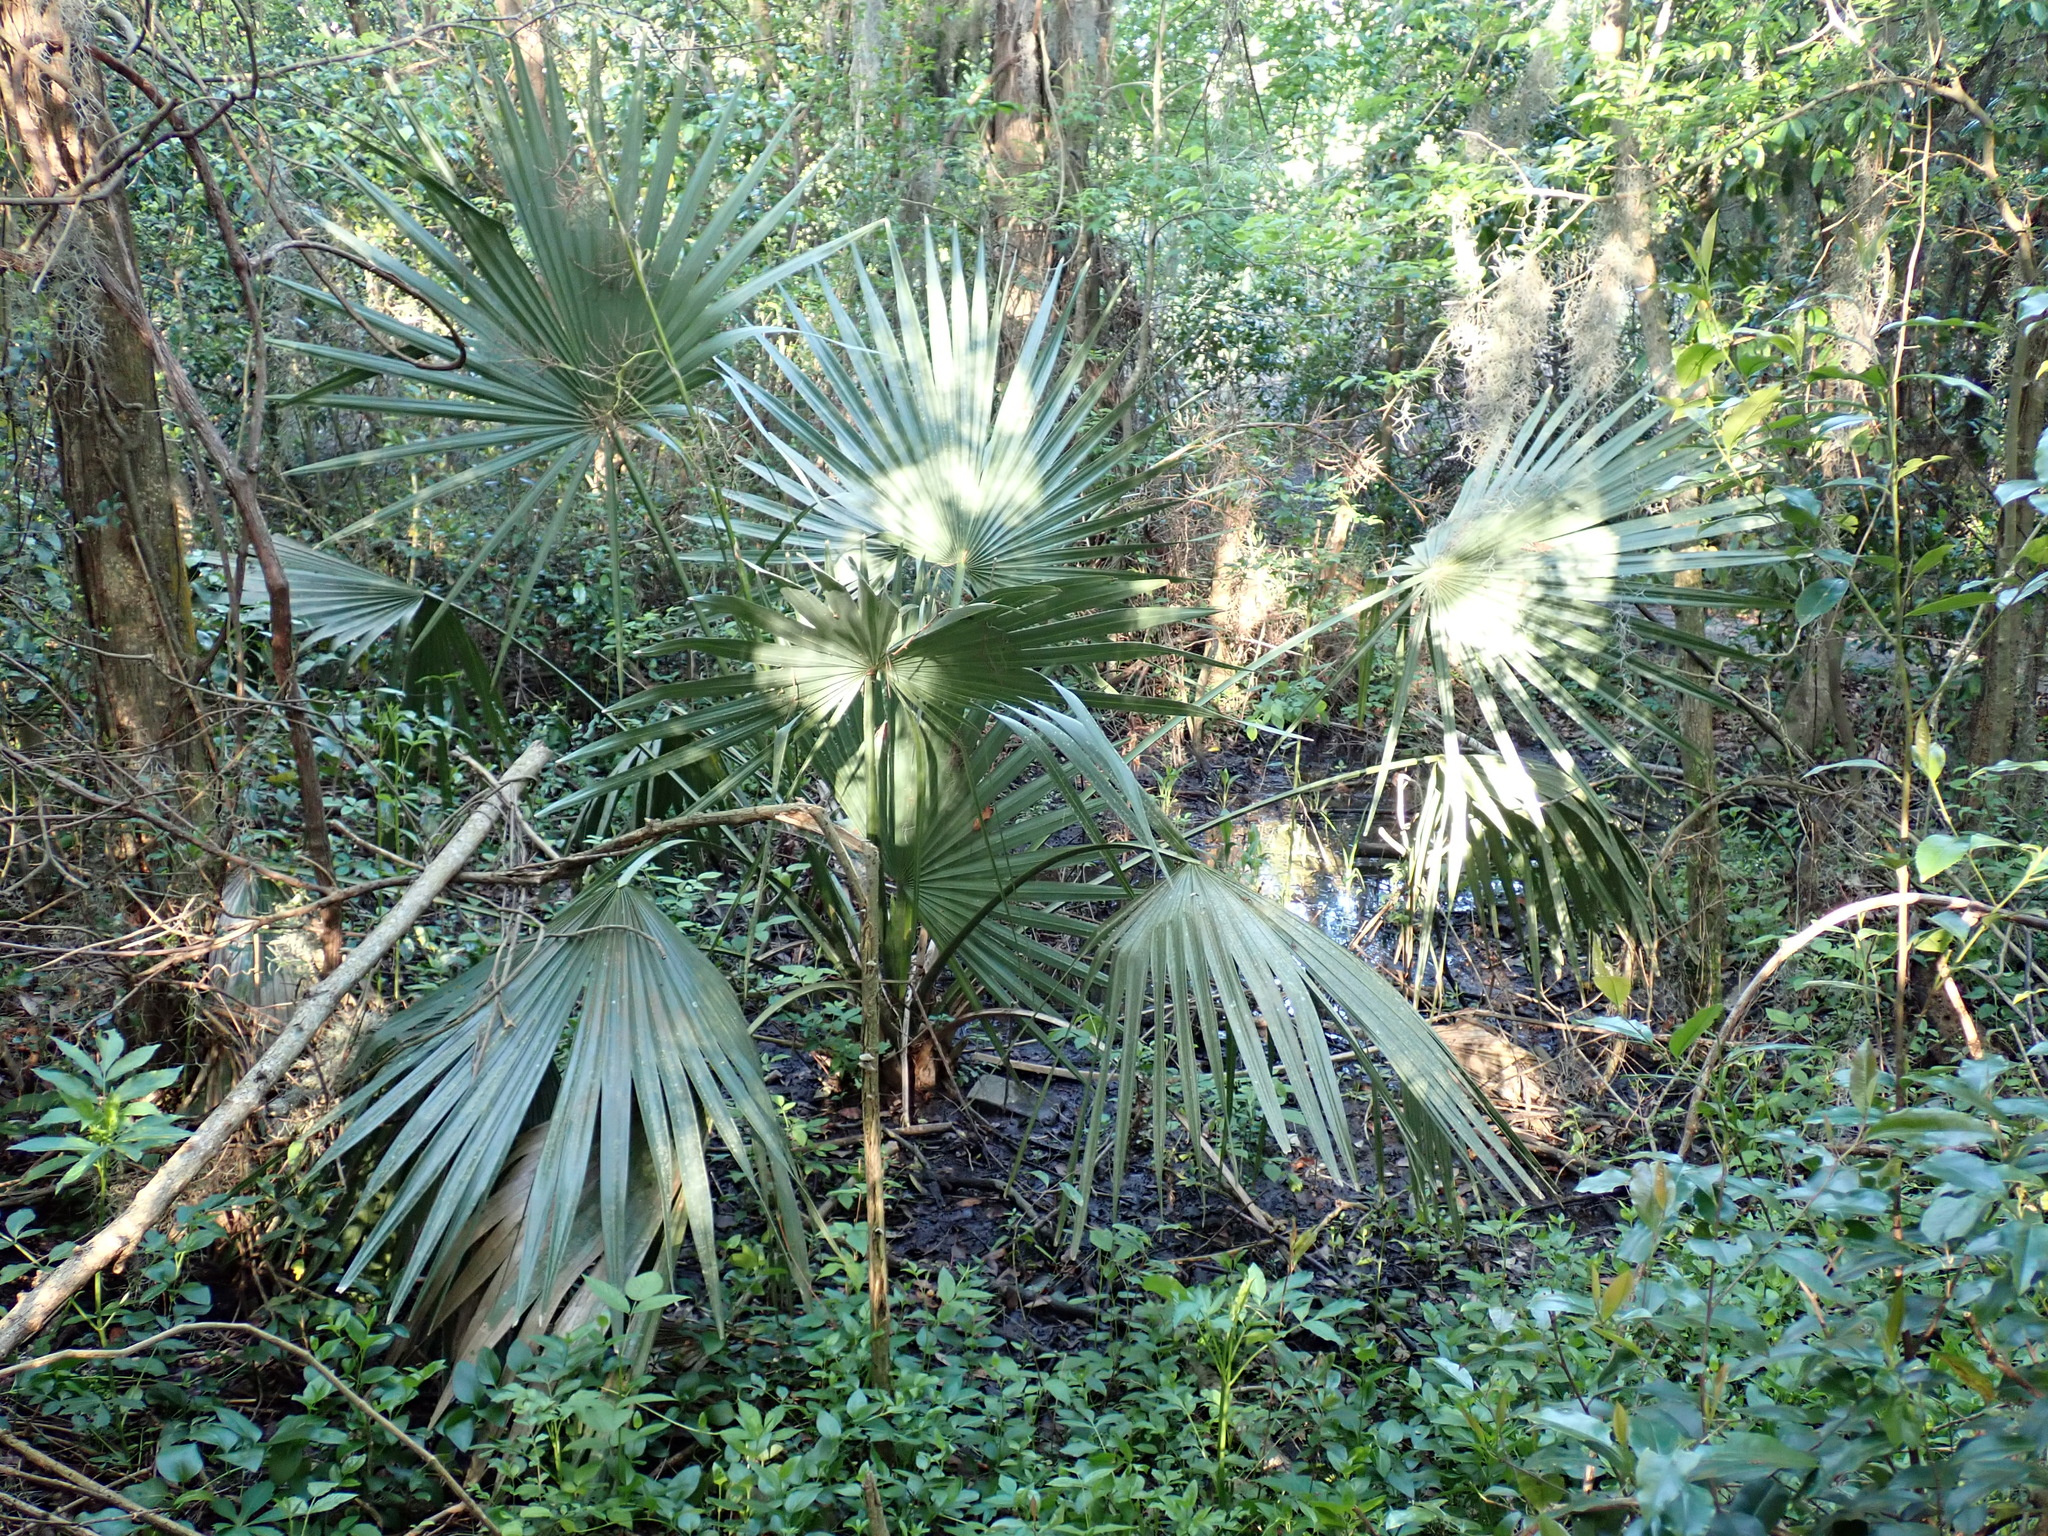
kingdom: Plantae
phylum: Tracheophyta
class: Liliopsida
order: Arecales
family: Arecaceae
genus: Sabal
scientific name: Sabal minor
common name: Dwarf palmetto
